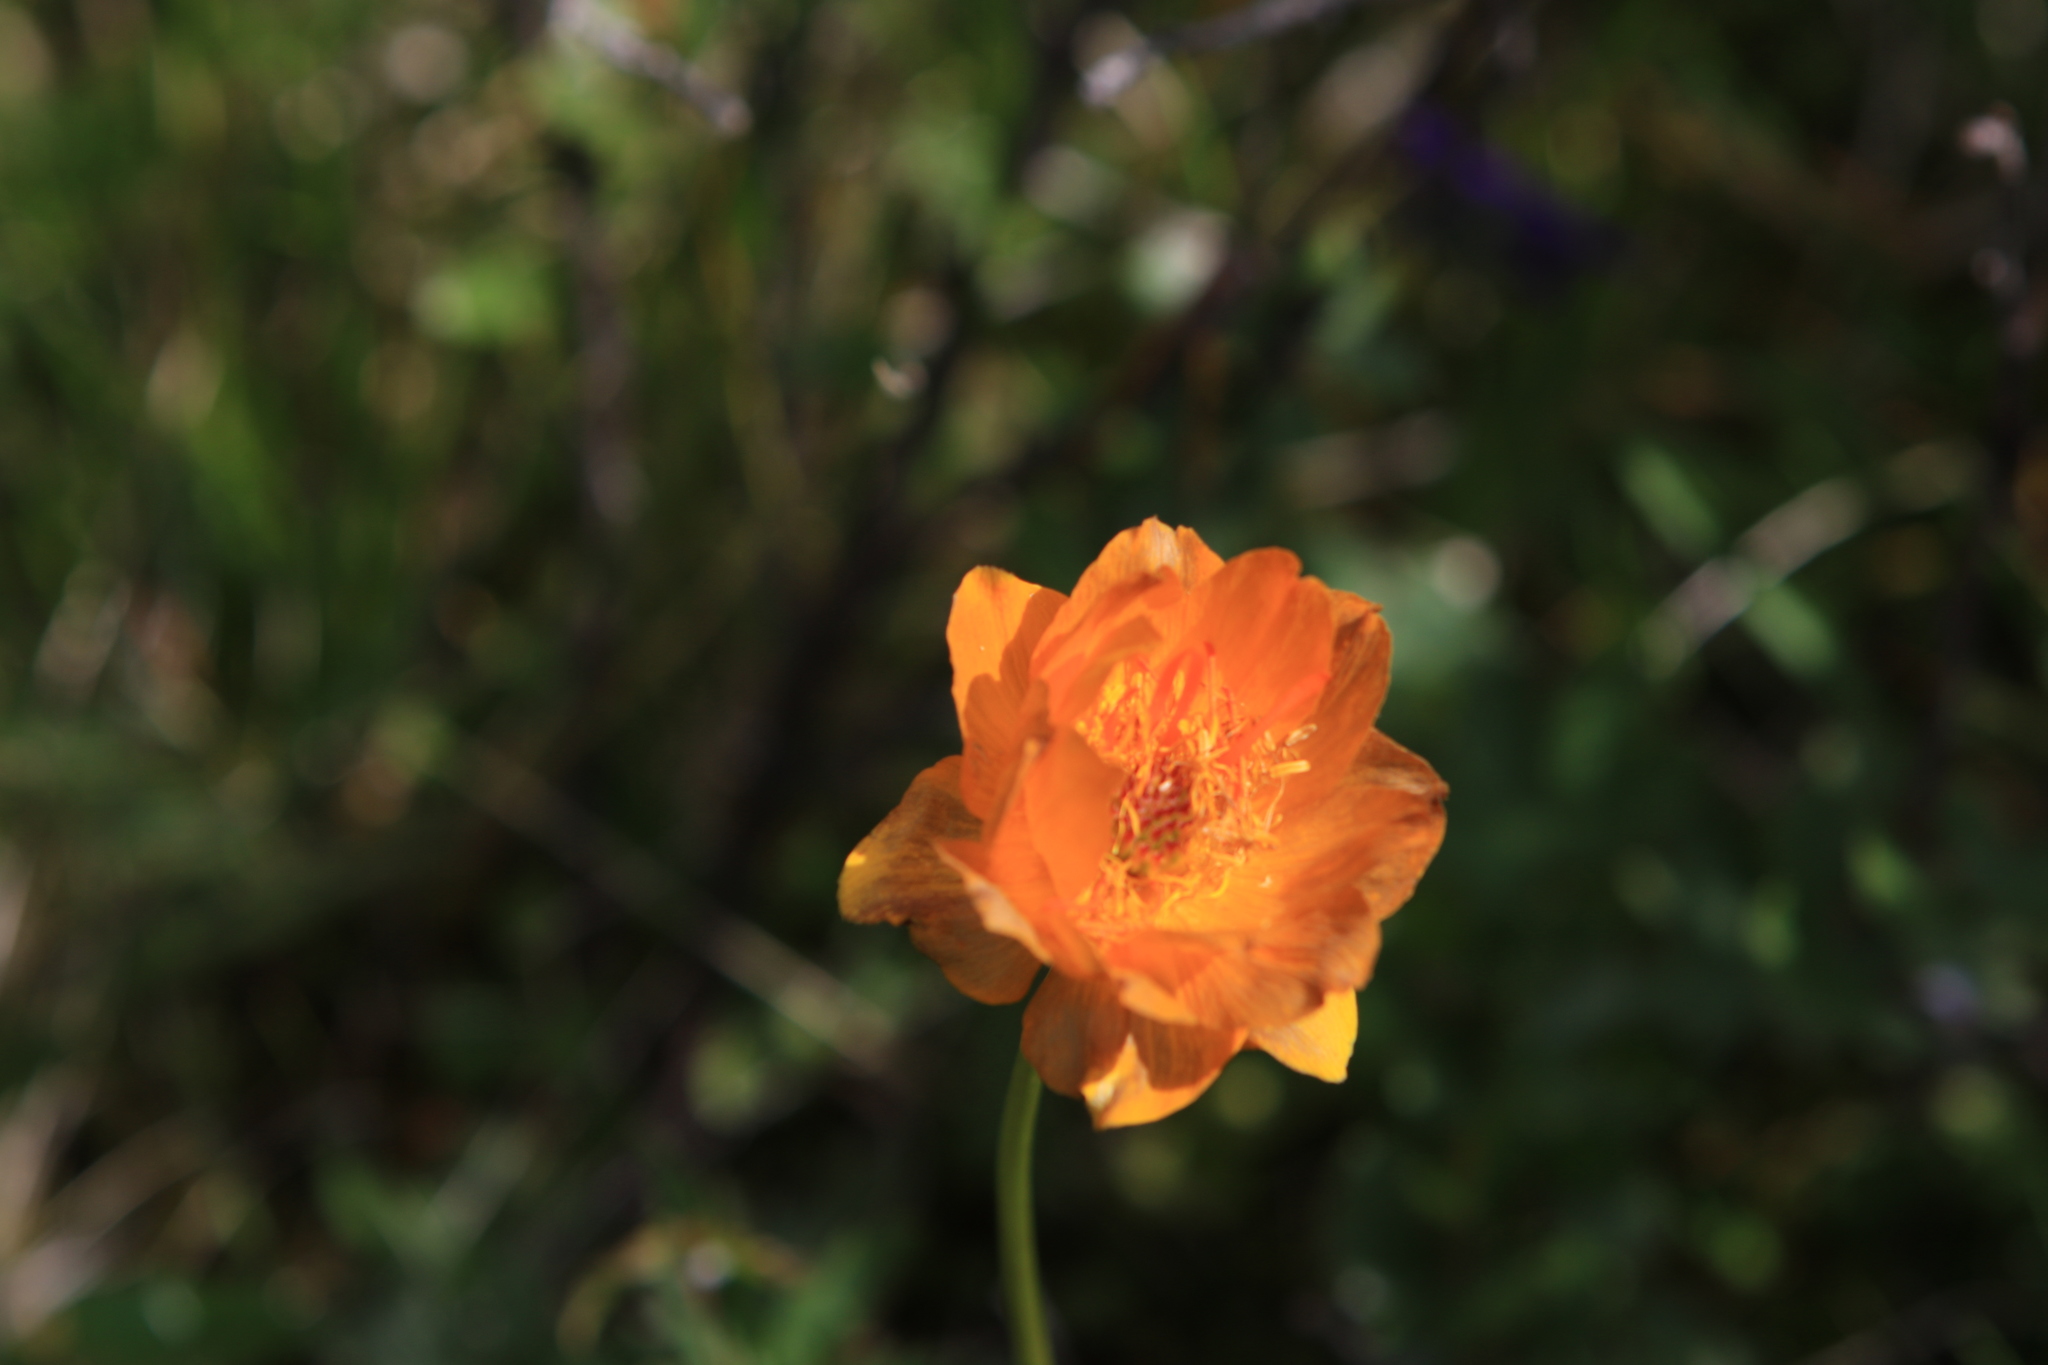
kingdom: Plantae
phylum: Tracheophyta
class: Magnoliopsida
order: Ranunculales
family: Ranunculaceae
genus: Trollius
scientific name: Trollius asiaticus
